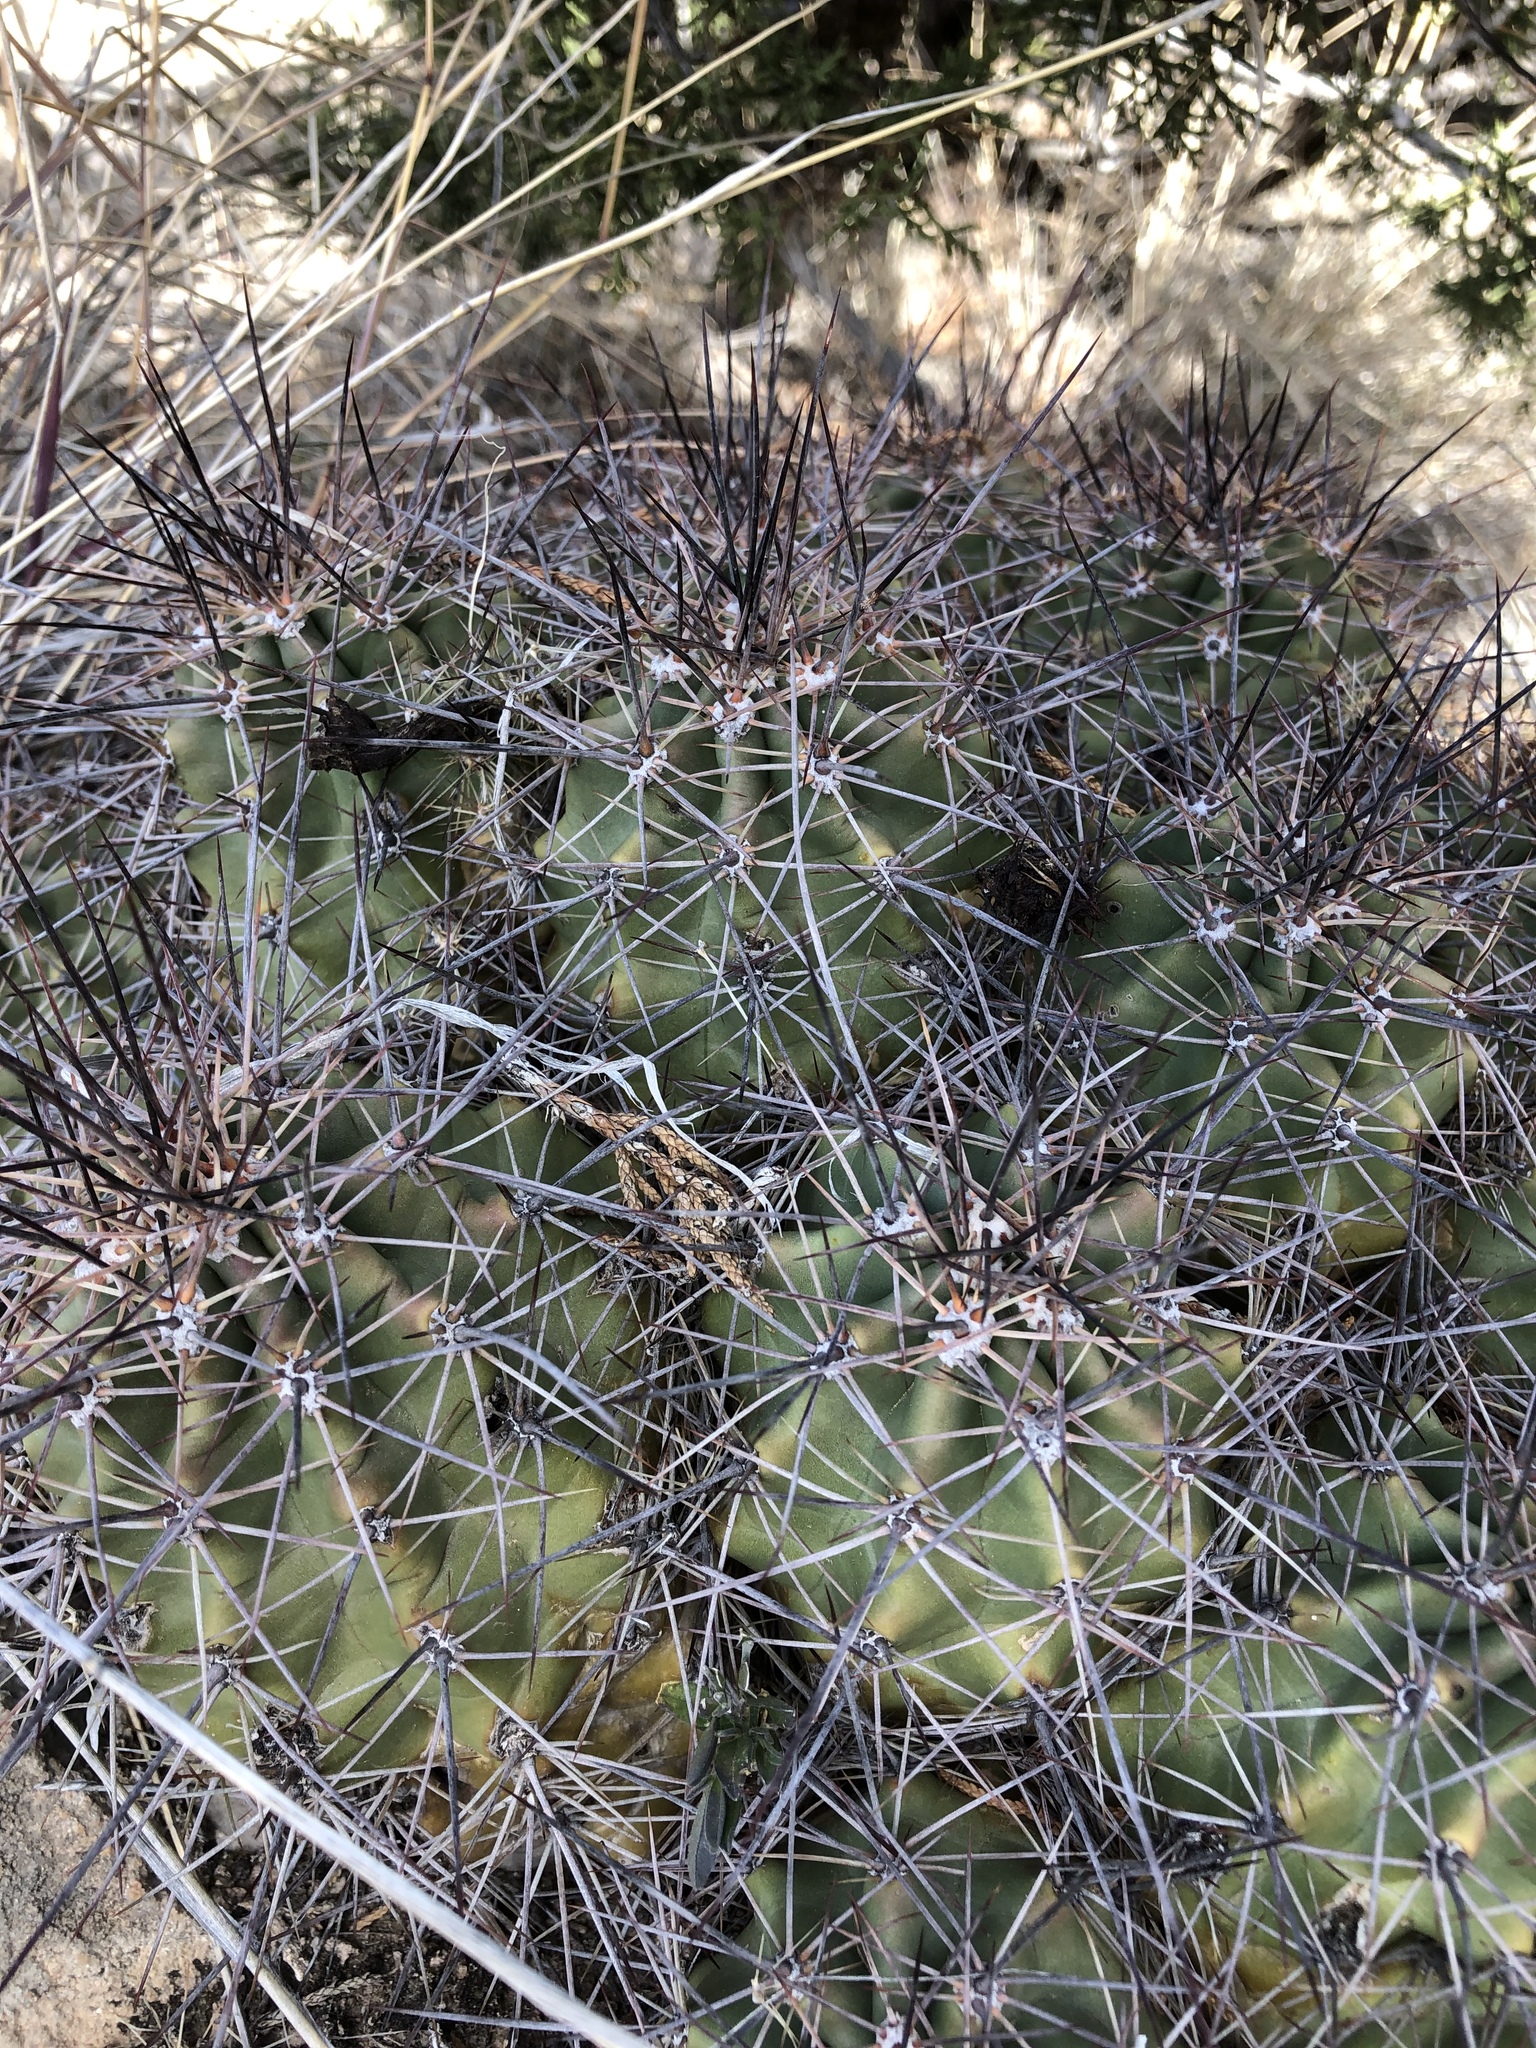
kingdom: Plantae
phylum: Tracheophyta
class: Magnoliopsida
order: Caryophyllales
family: Cactaceae
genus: Echinocereus
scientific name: Echinocereus coccineus
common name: Scarlet hedgehog cactus
